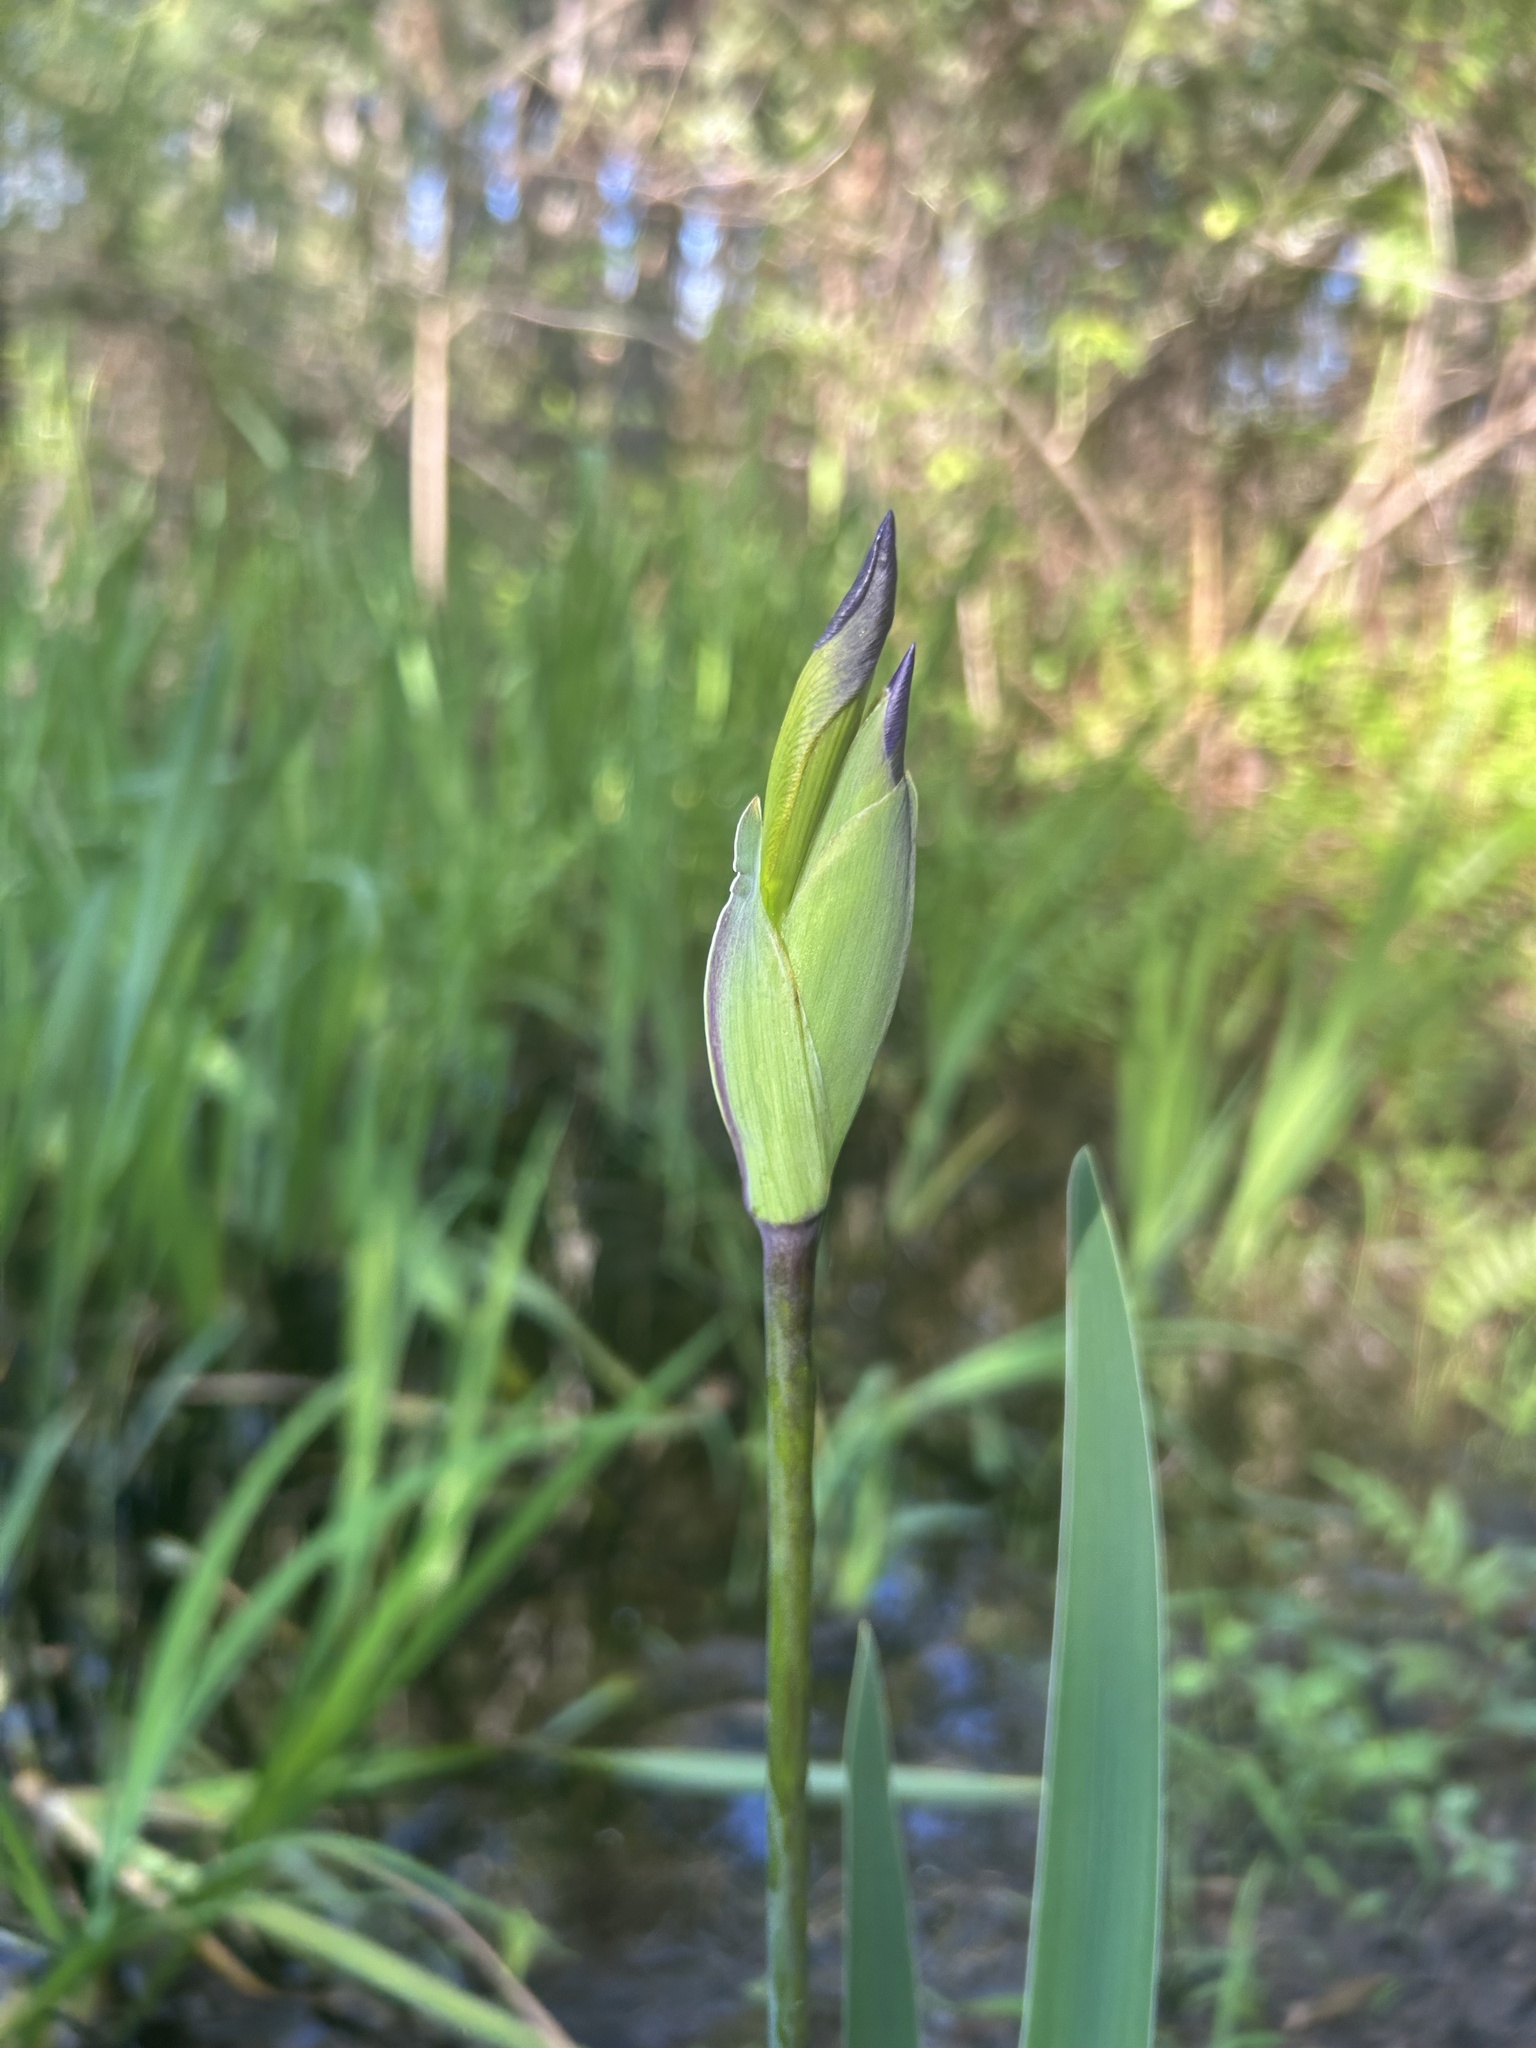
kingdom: Plantae
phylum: Tracheophyta
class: Liliopsida
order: Asparagales
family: Iridaceae
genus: Iris
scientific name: Iris virginica
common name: Southern blue flag
